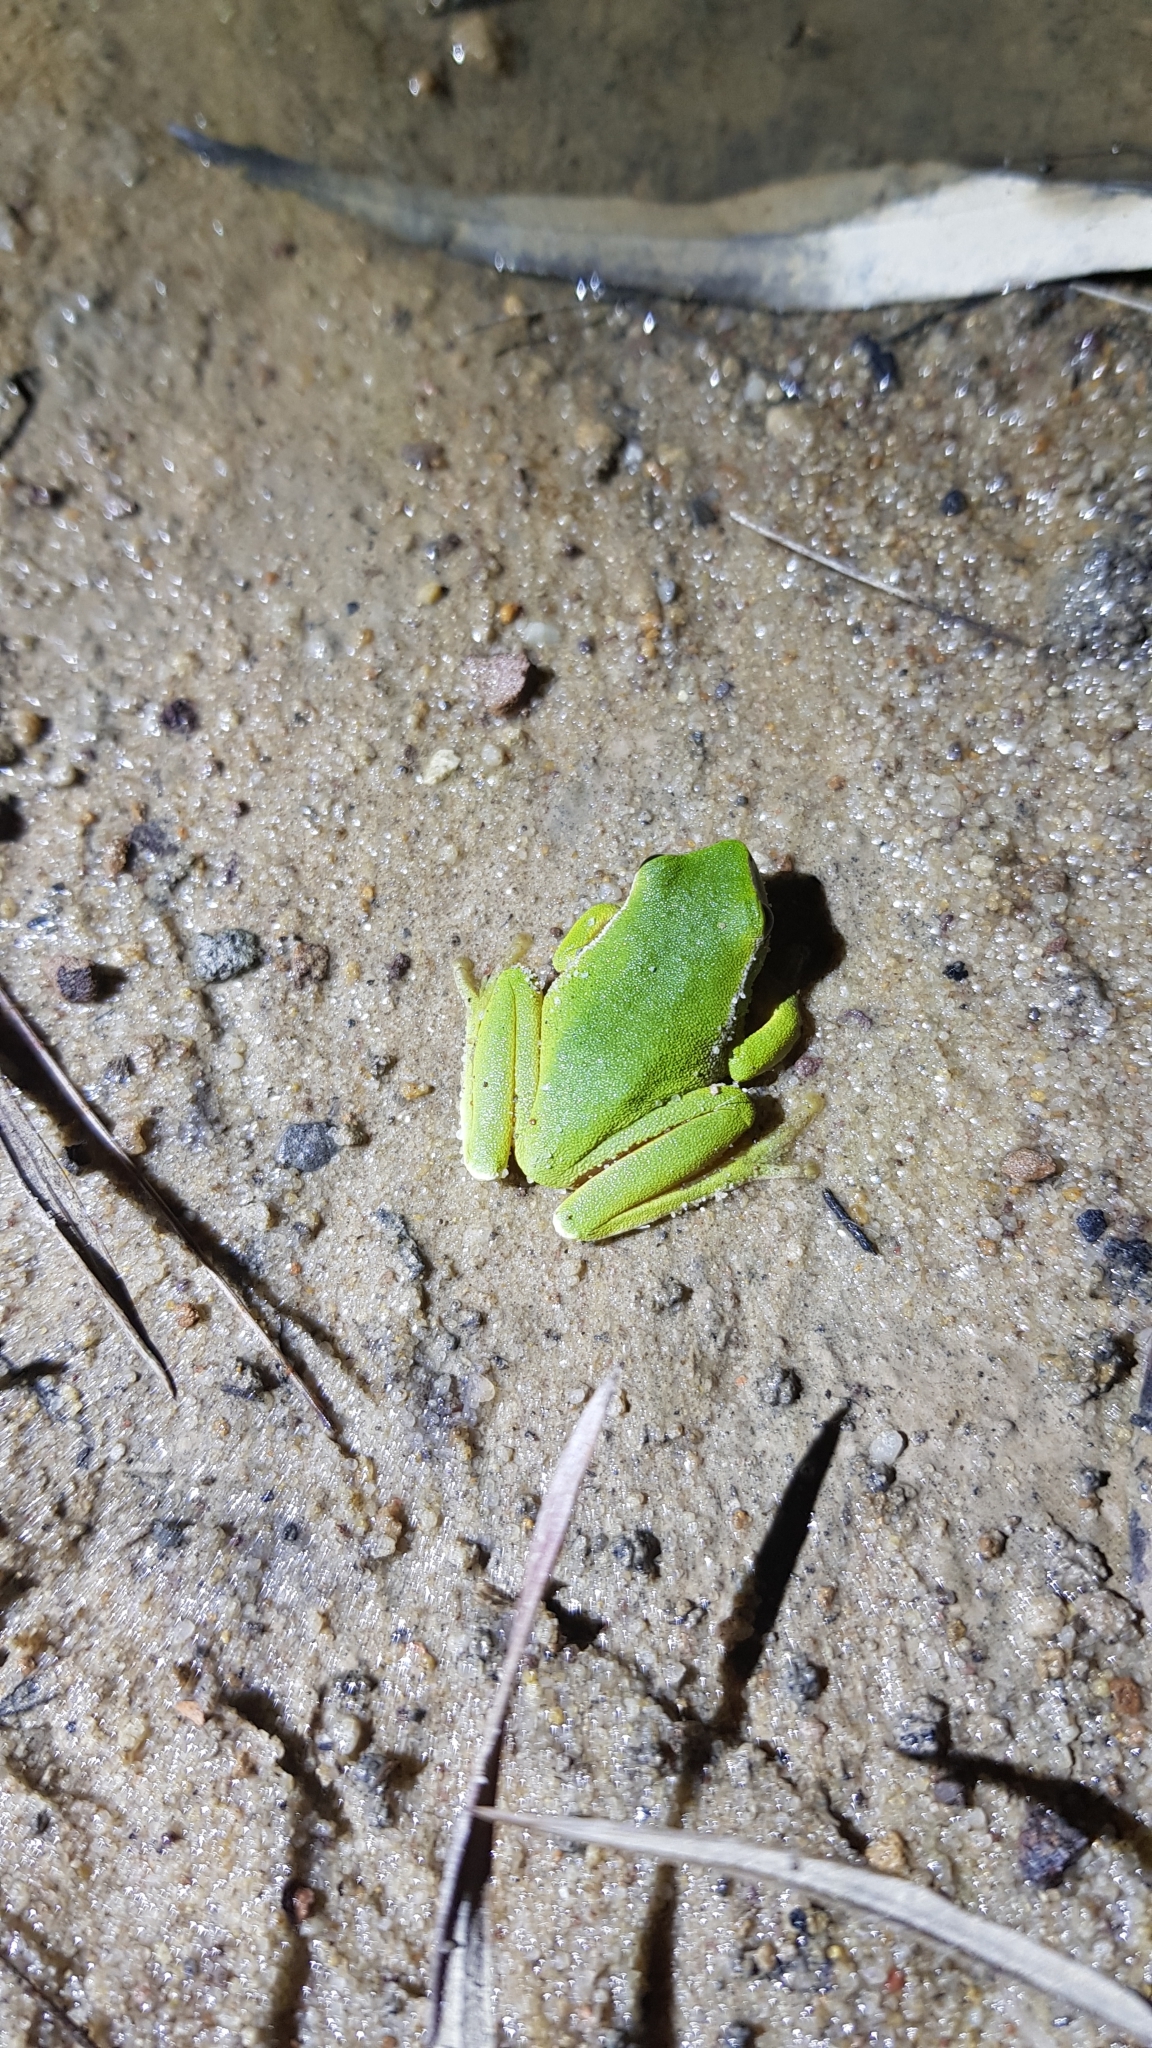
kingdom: Animalia
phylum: Chordata
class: Amphibia
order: Anura
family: Pelodryadidae
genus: Ranoidea
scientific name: Ranoidea phyllochroa
